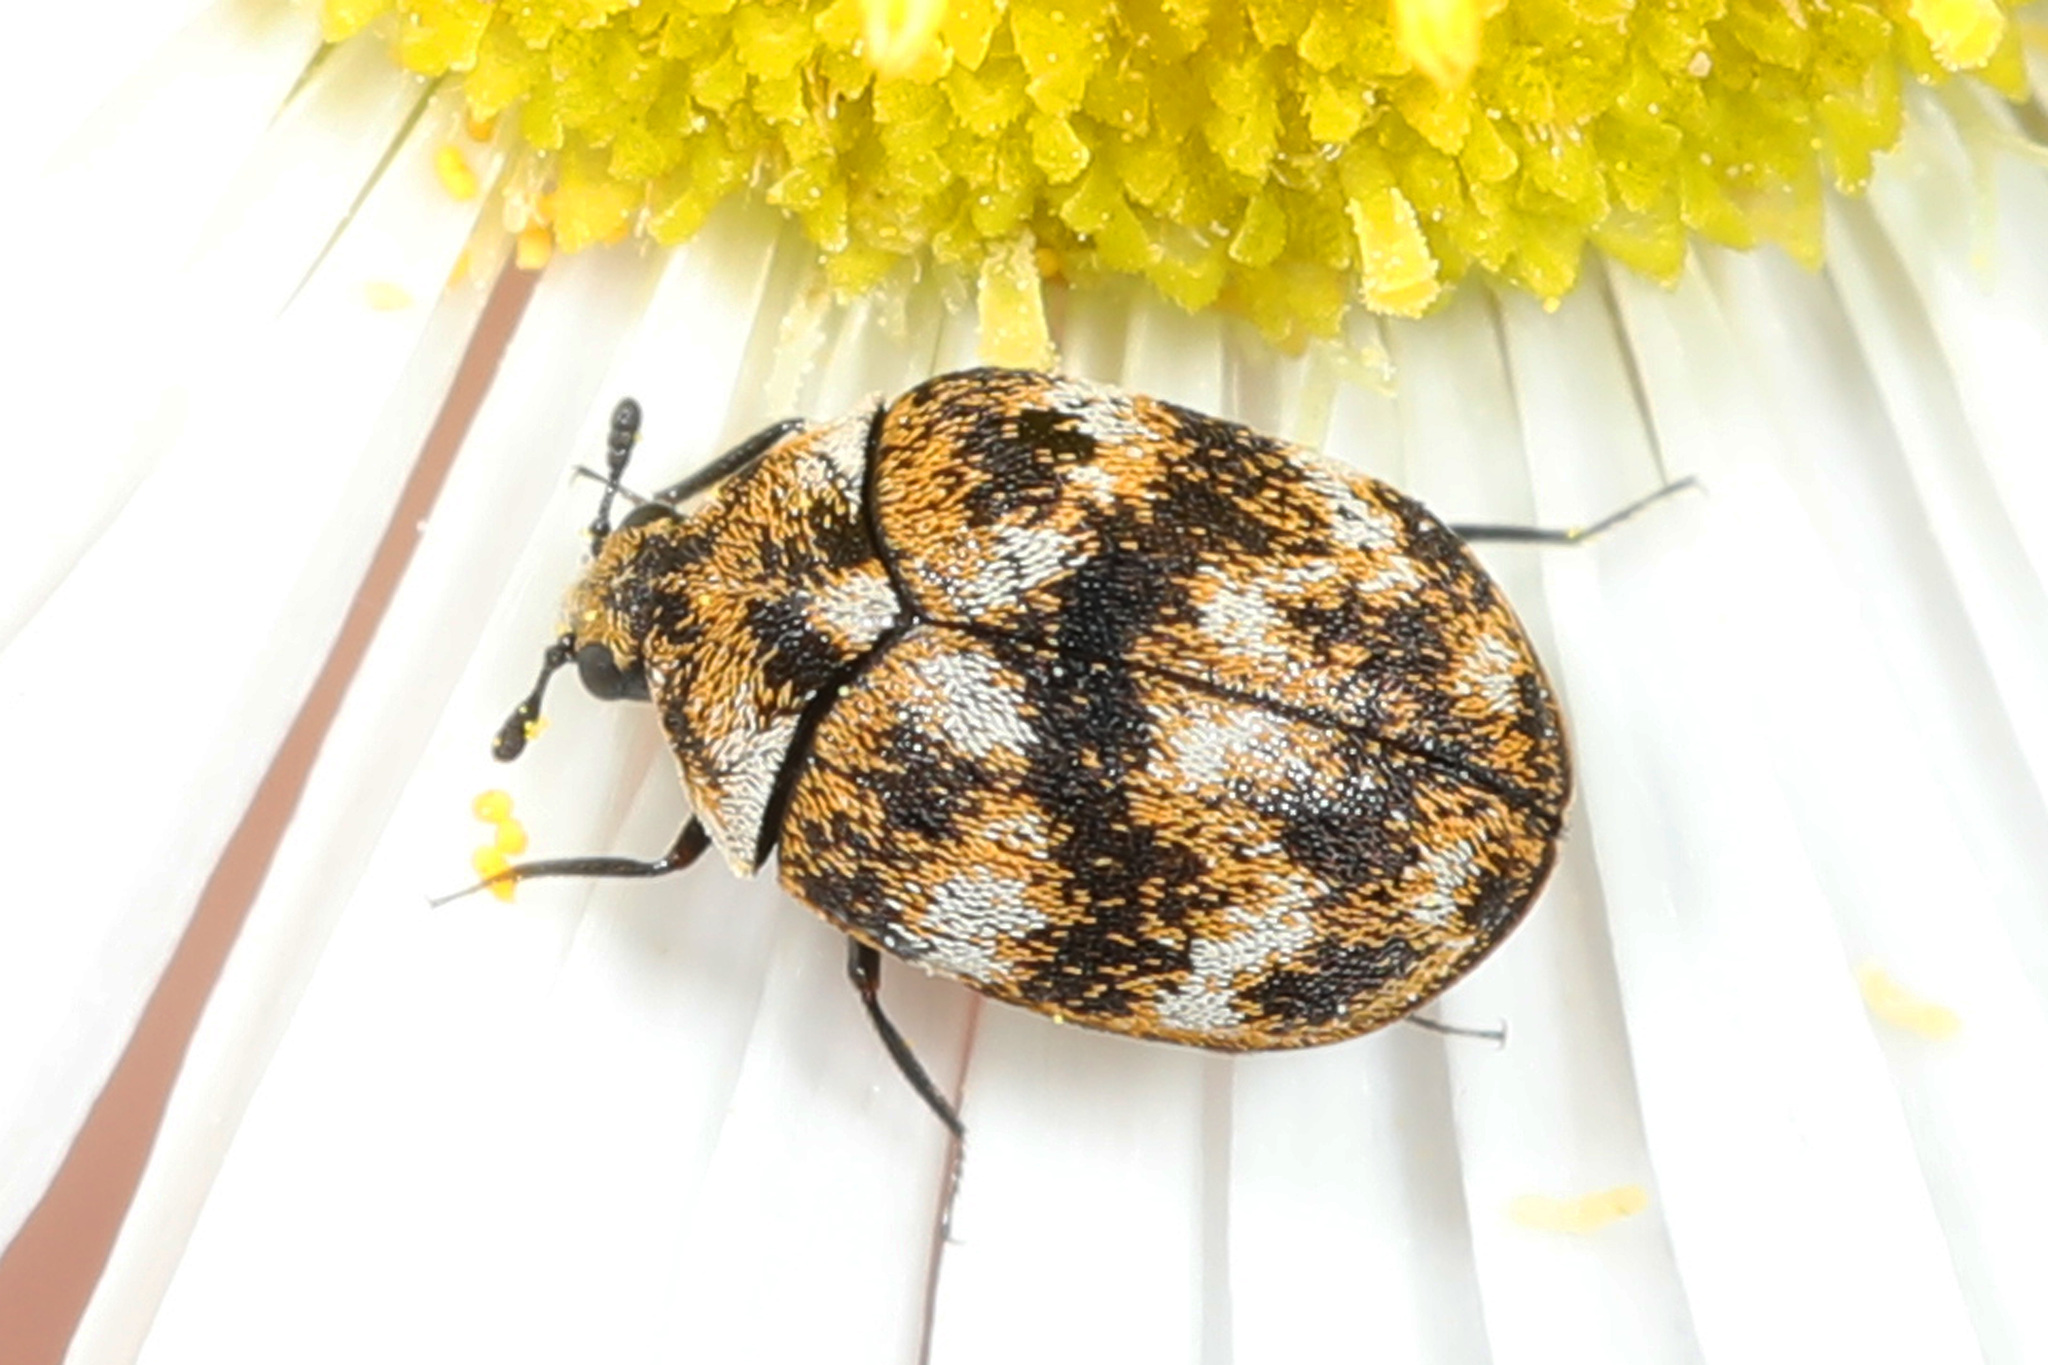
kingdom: Animalia
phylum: Arthropoda
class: Insecta
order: Coleoptera
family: Dermestidae
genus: Anthrenus
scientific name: Anthrenus verbasci
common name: Varied carpet beetle
